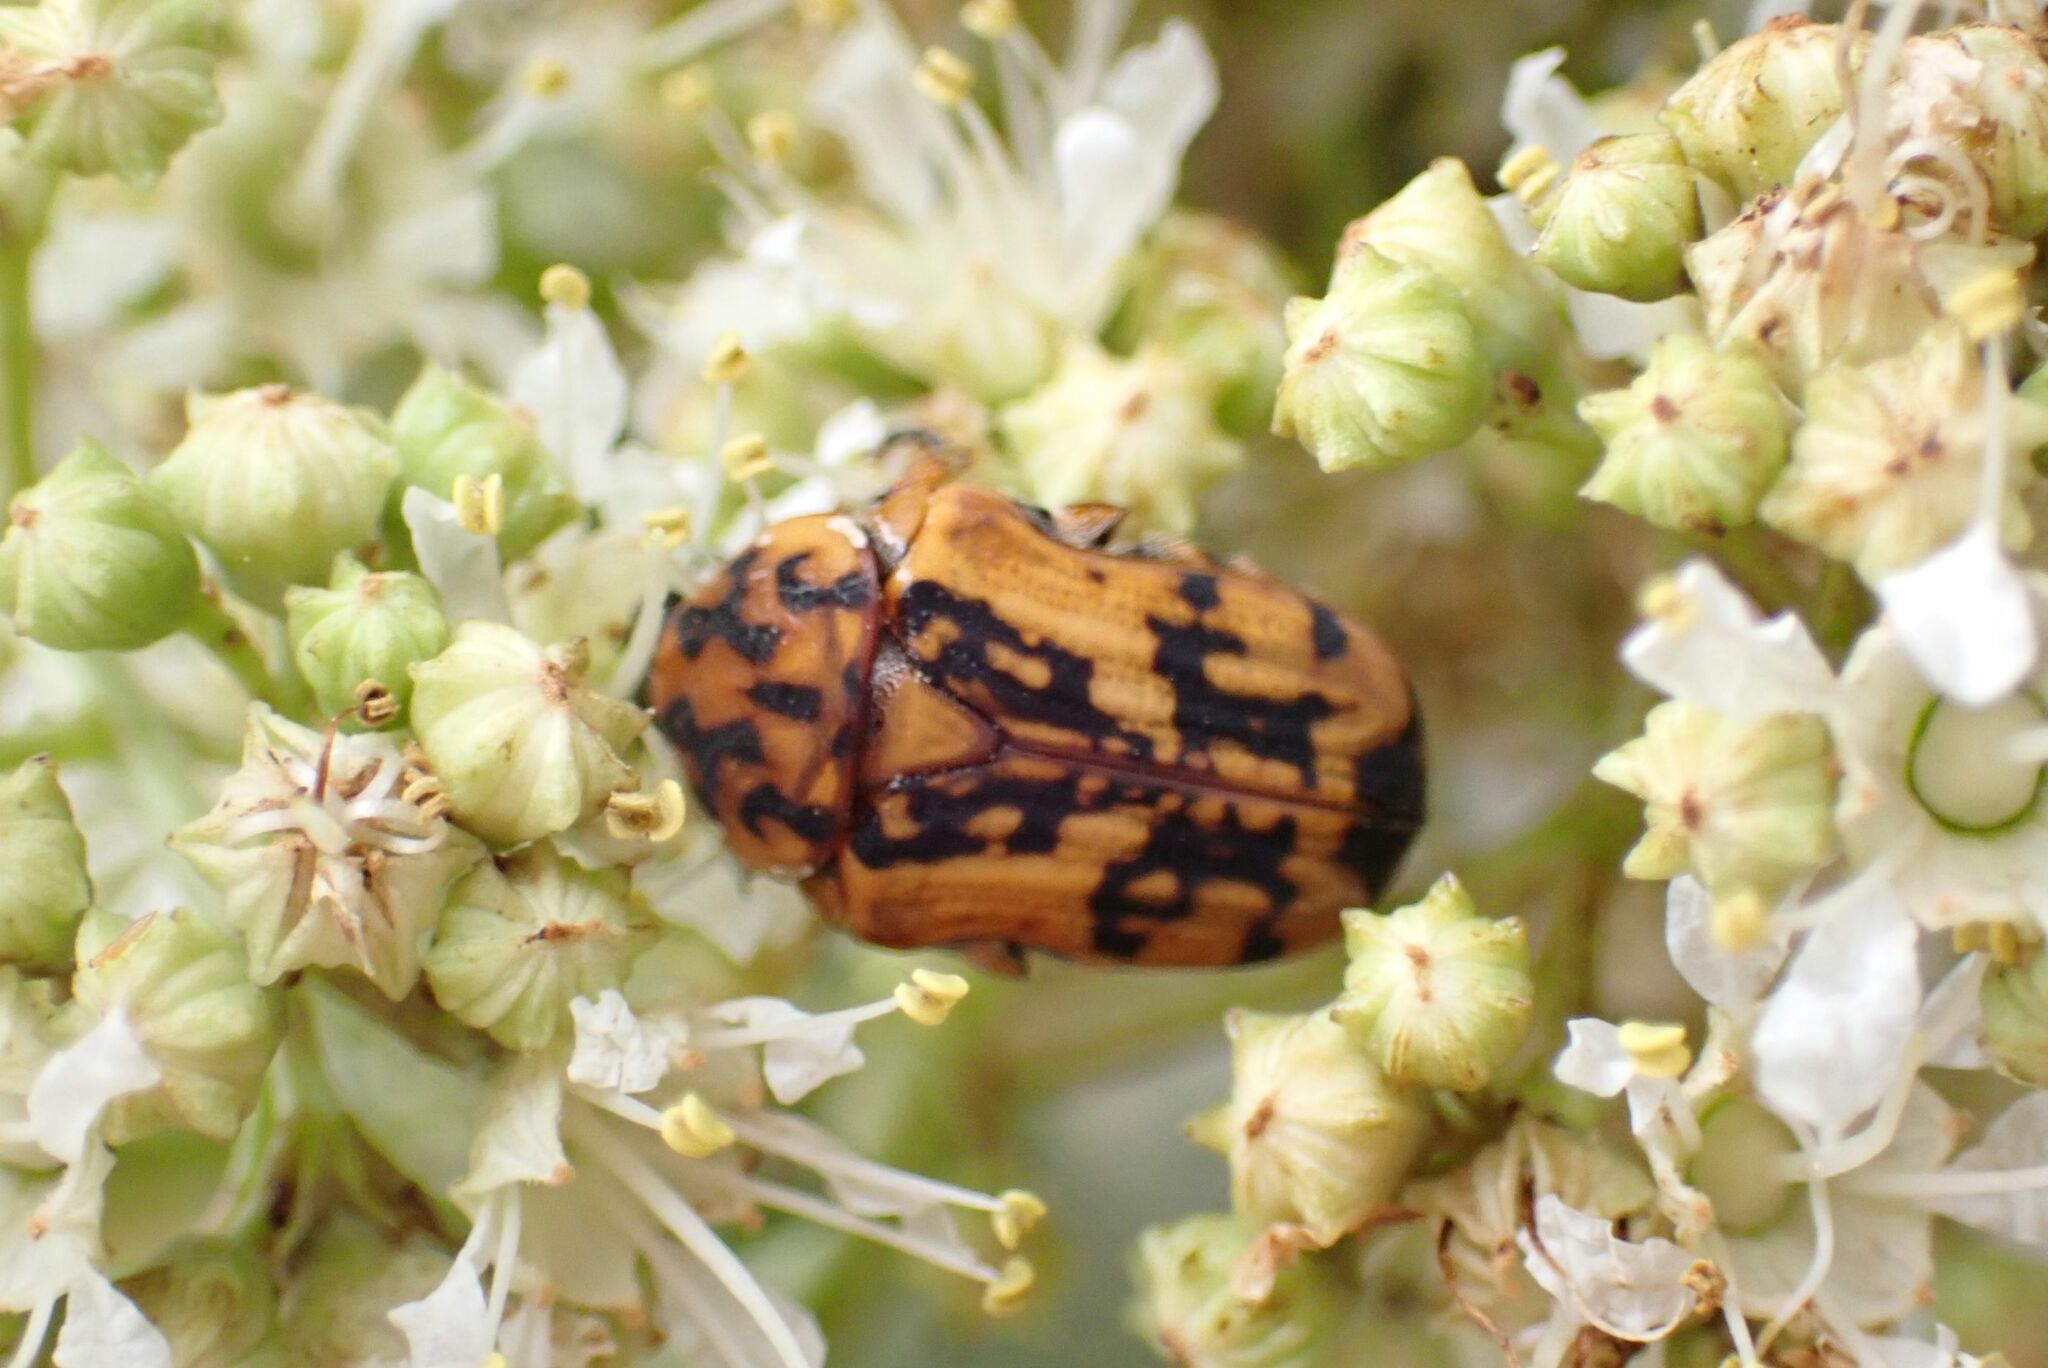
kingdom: Animalia
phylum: Arthropoda
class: Insecta
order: Coleoptera
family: Scarabaeidae
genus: Dolichostethus
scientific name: Dolichostethus levis
